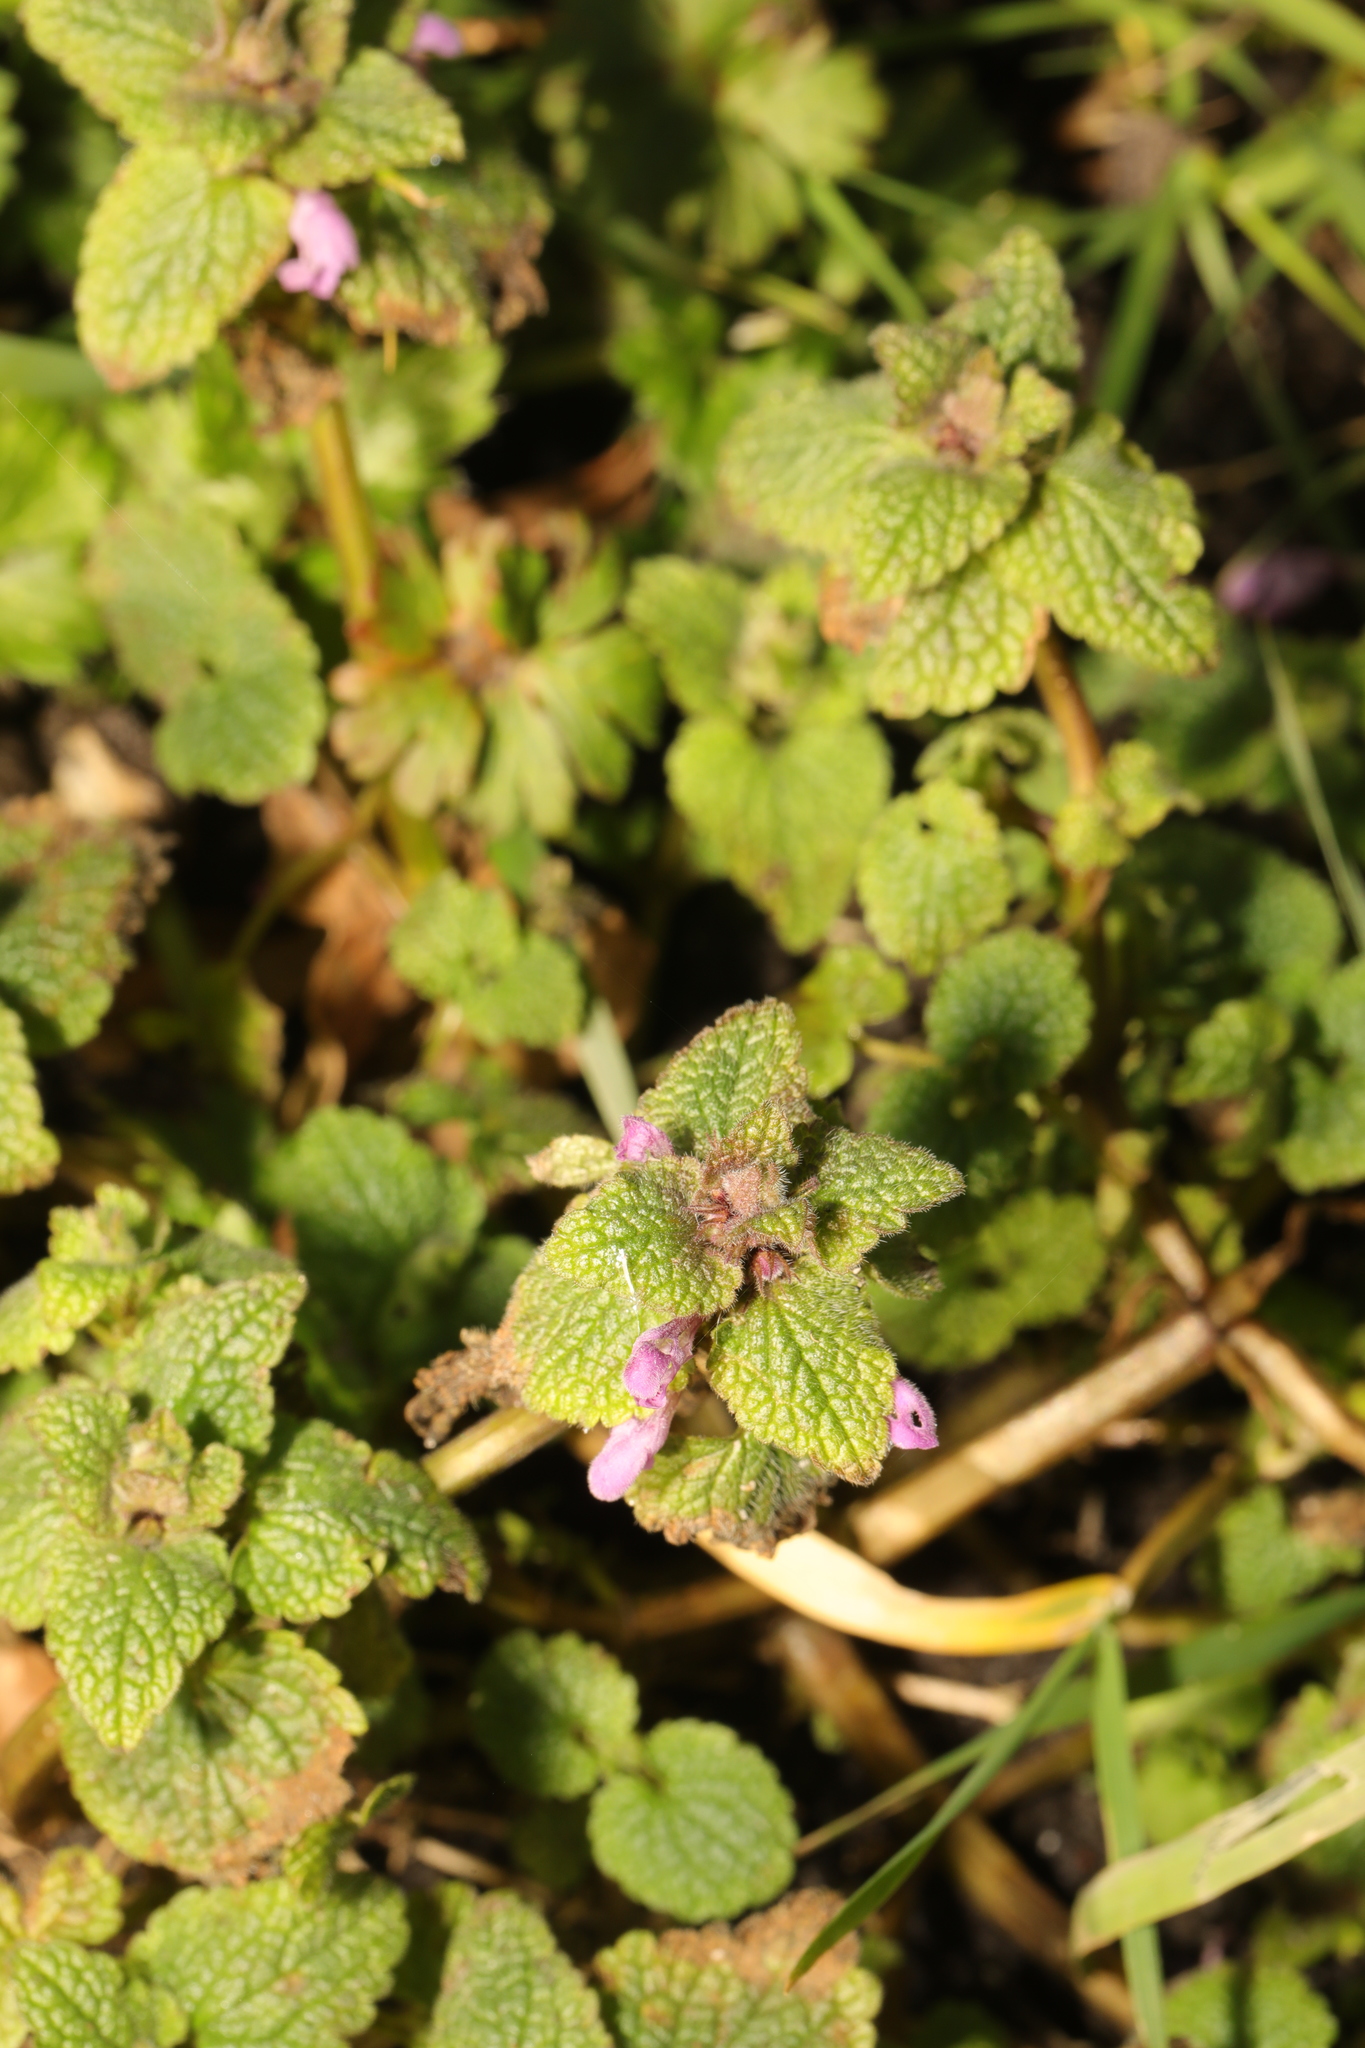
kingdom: Plantae
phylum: Tracheophyta
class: Magnoliopsida
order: Lamiales
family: Lamiaceae
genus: Lamium
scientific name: Lamium purpureum
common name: Red dead-nettle
